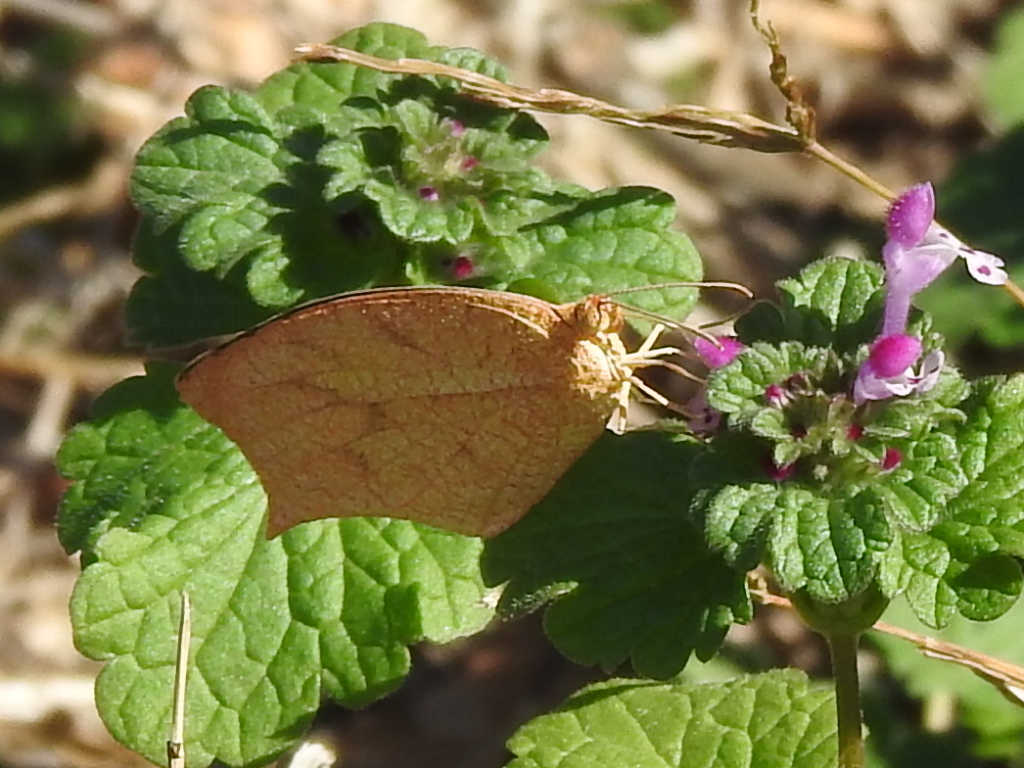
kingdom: Animalia
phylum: Arthropoda
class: Insecta
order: Lepidoptera
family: Pieridae
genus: Pyrisitia
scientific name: Pyrisitia proterpia
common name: Tailed orange
